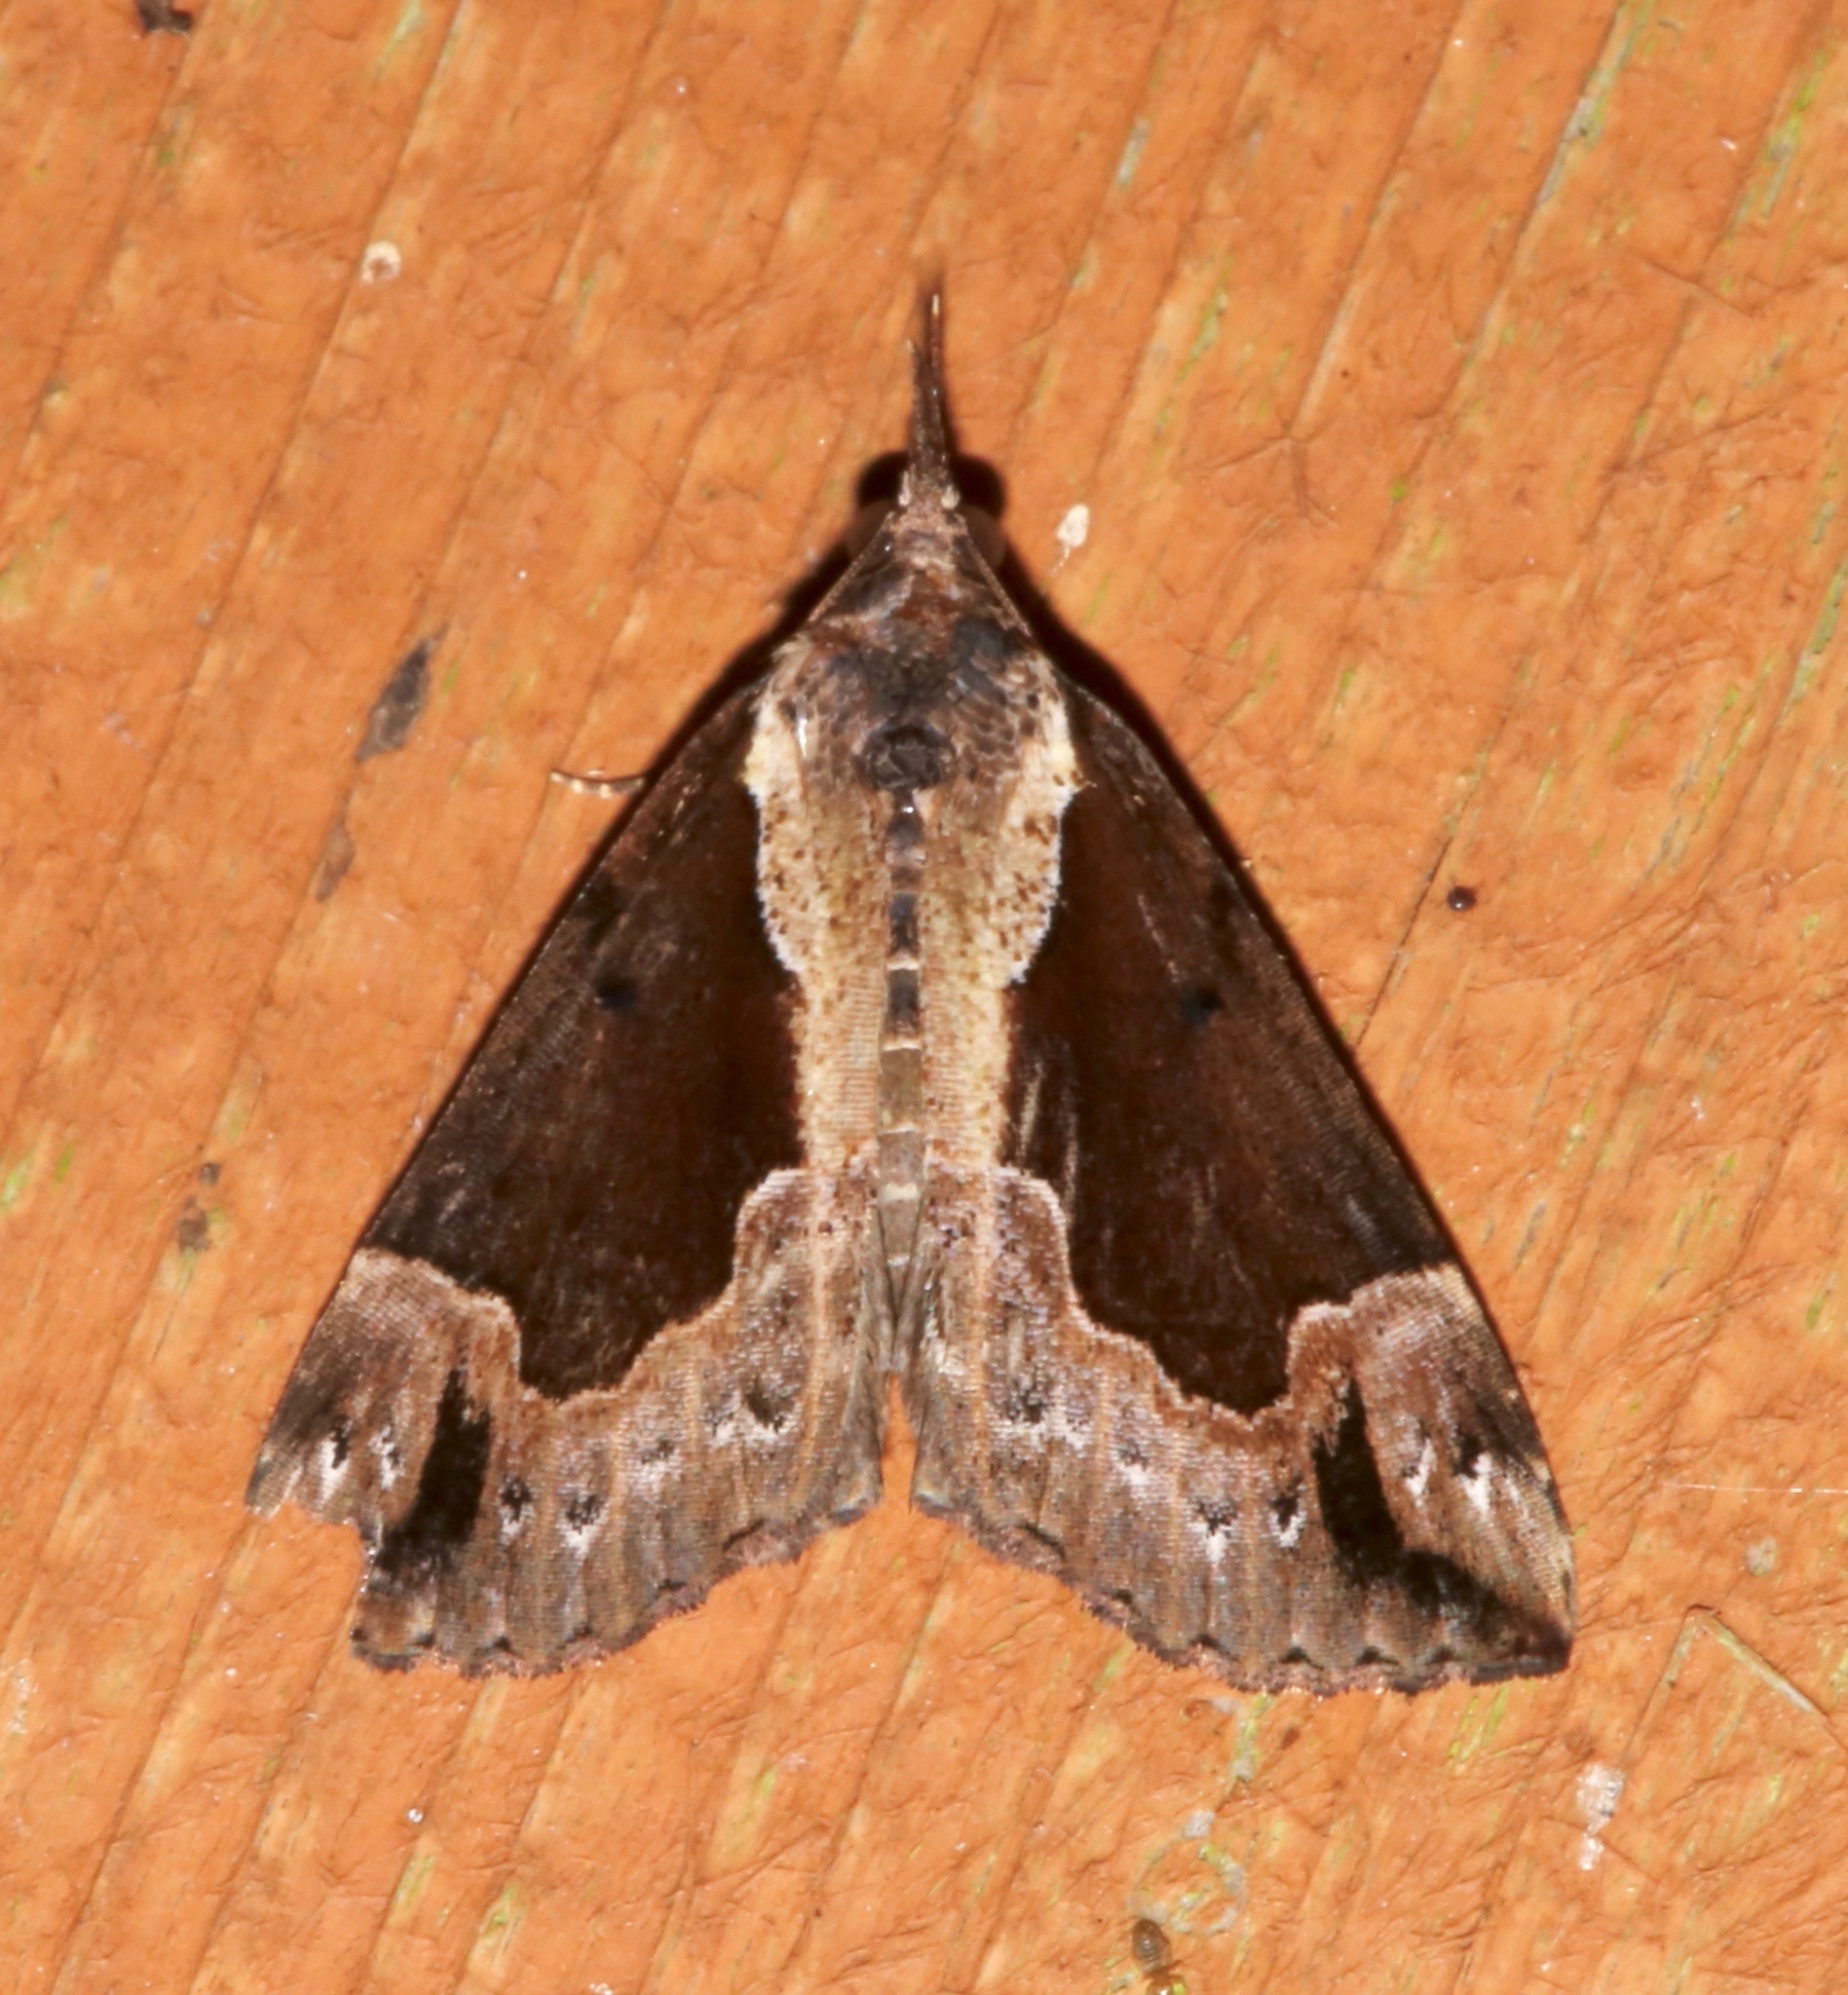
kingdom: Animalia
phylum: Arthropoda
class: Insecta
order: Lepidoptera
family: Erebidae
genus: Hypena
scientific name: Hypena baltimoralis
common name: Baltimore snout
